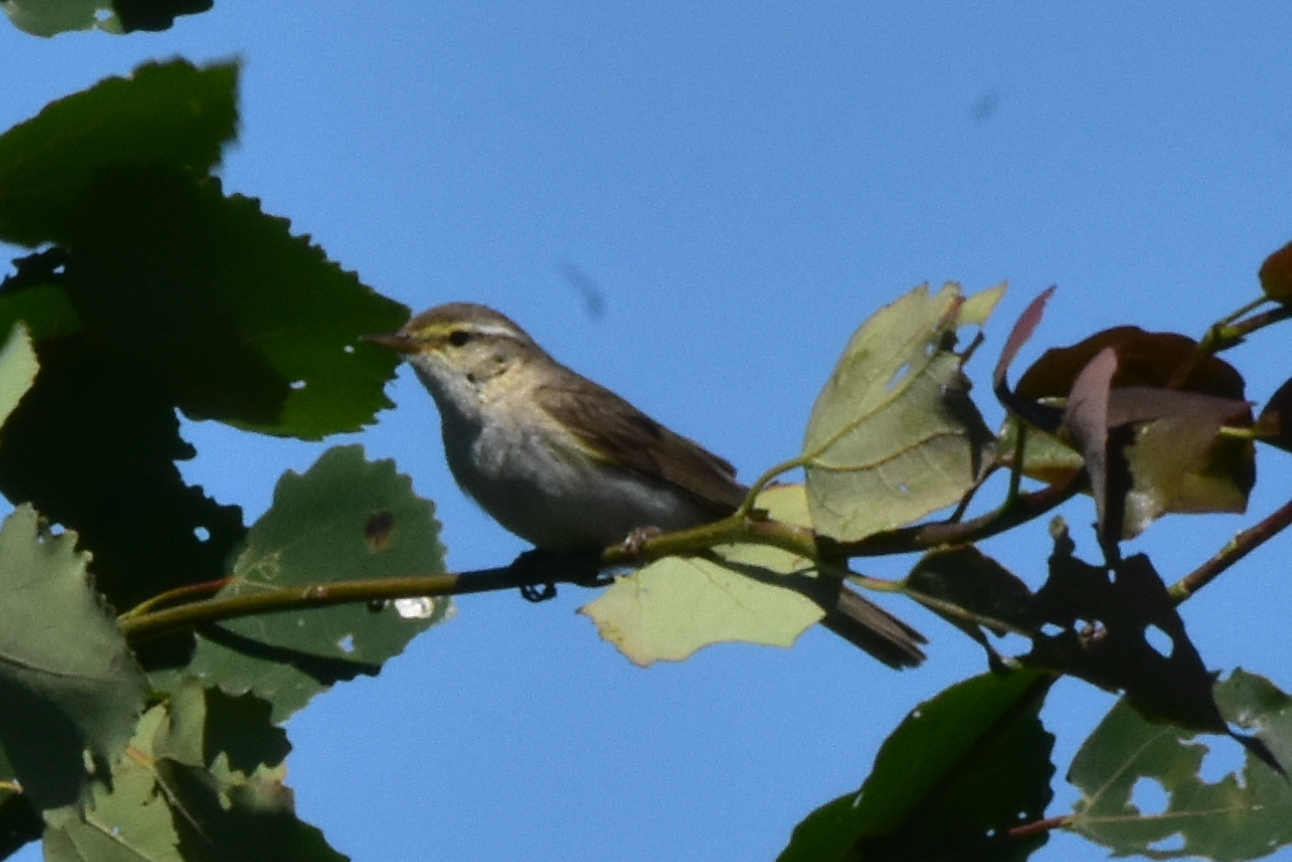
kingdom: Animalia
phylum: Chordata
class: Aves
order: Passeriformes
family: Phylloscopidae
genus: Phylloscopus
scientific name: Phylloscopus trochilus
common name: Willow warbler
